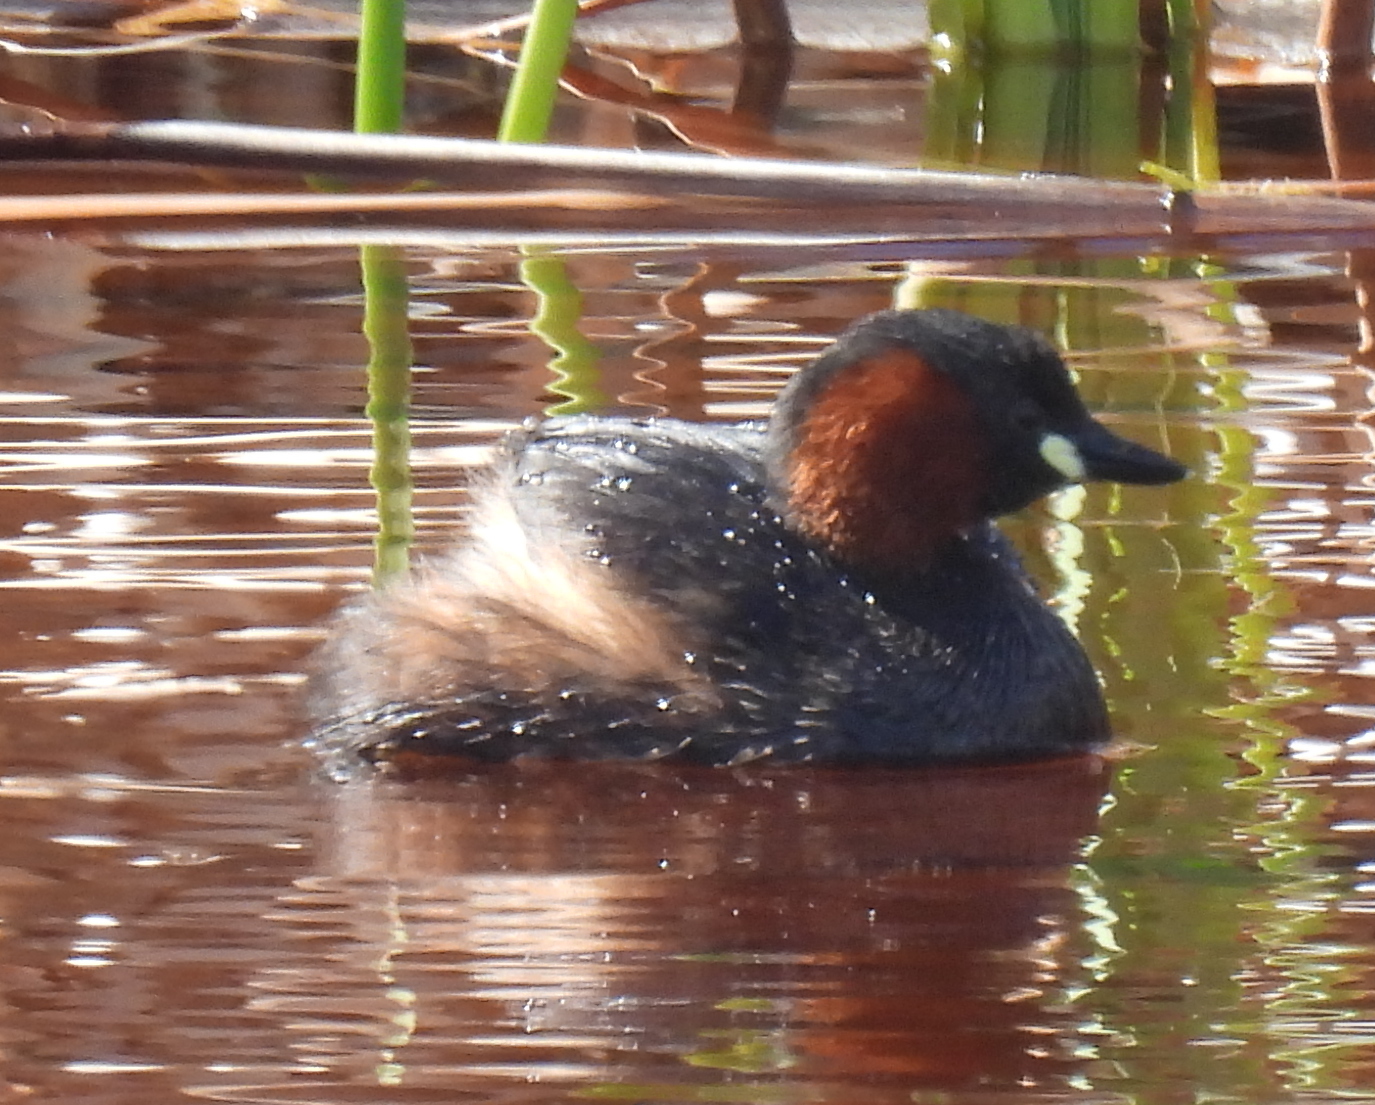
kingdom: Animalia
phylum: Chordata
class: Aves
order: Podicipediformes
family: Podicipedidae
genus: Tachybaptus
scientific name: Tachybaptus ruficollis
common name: Little grebe
